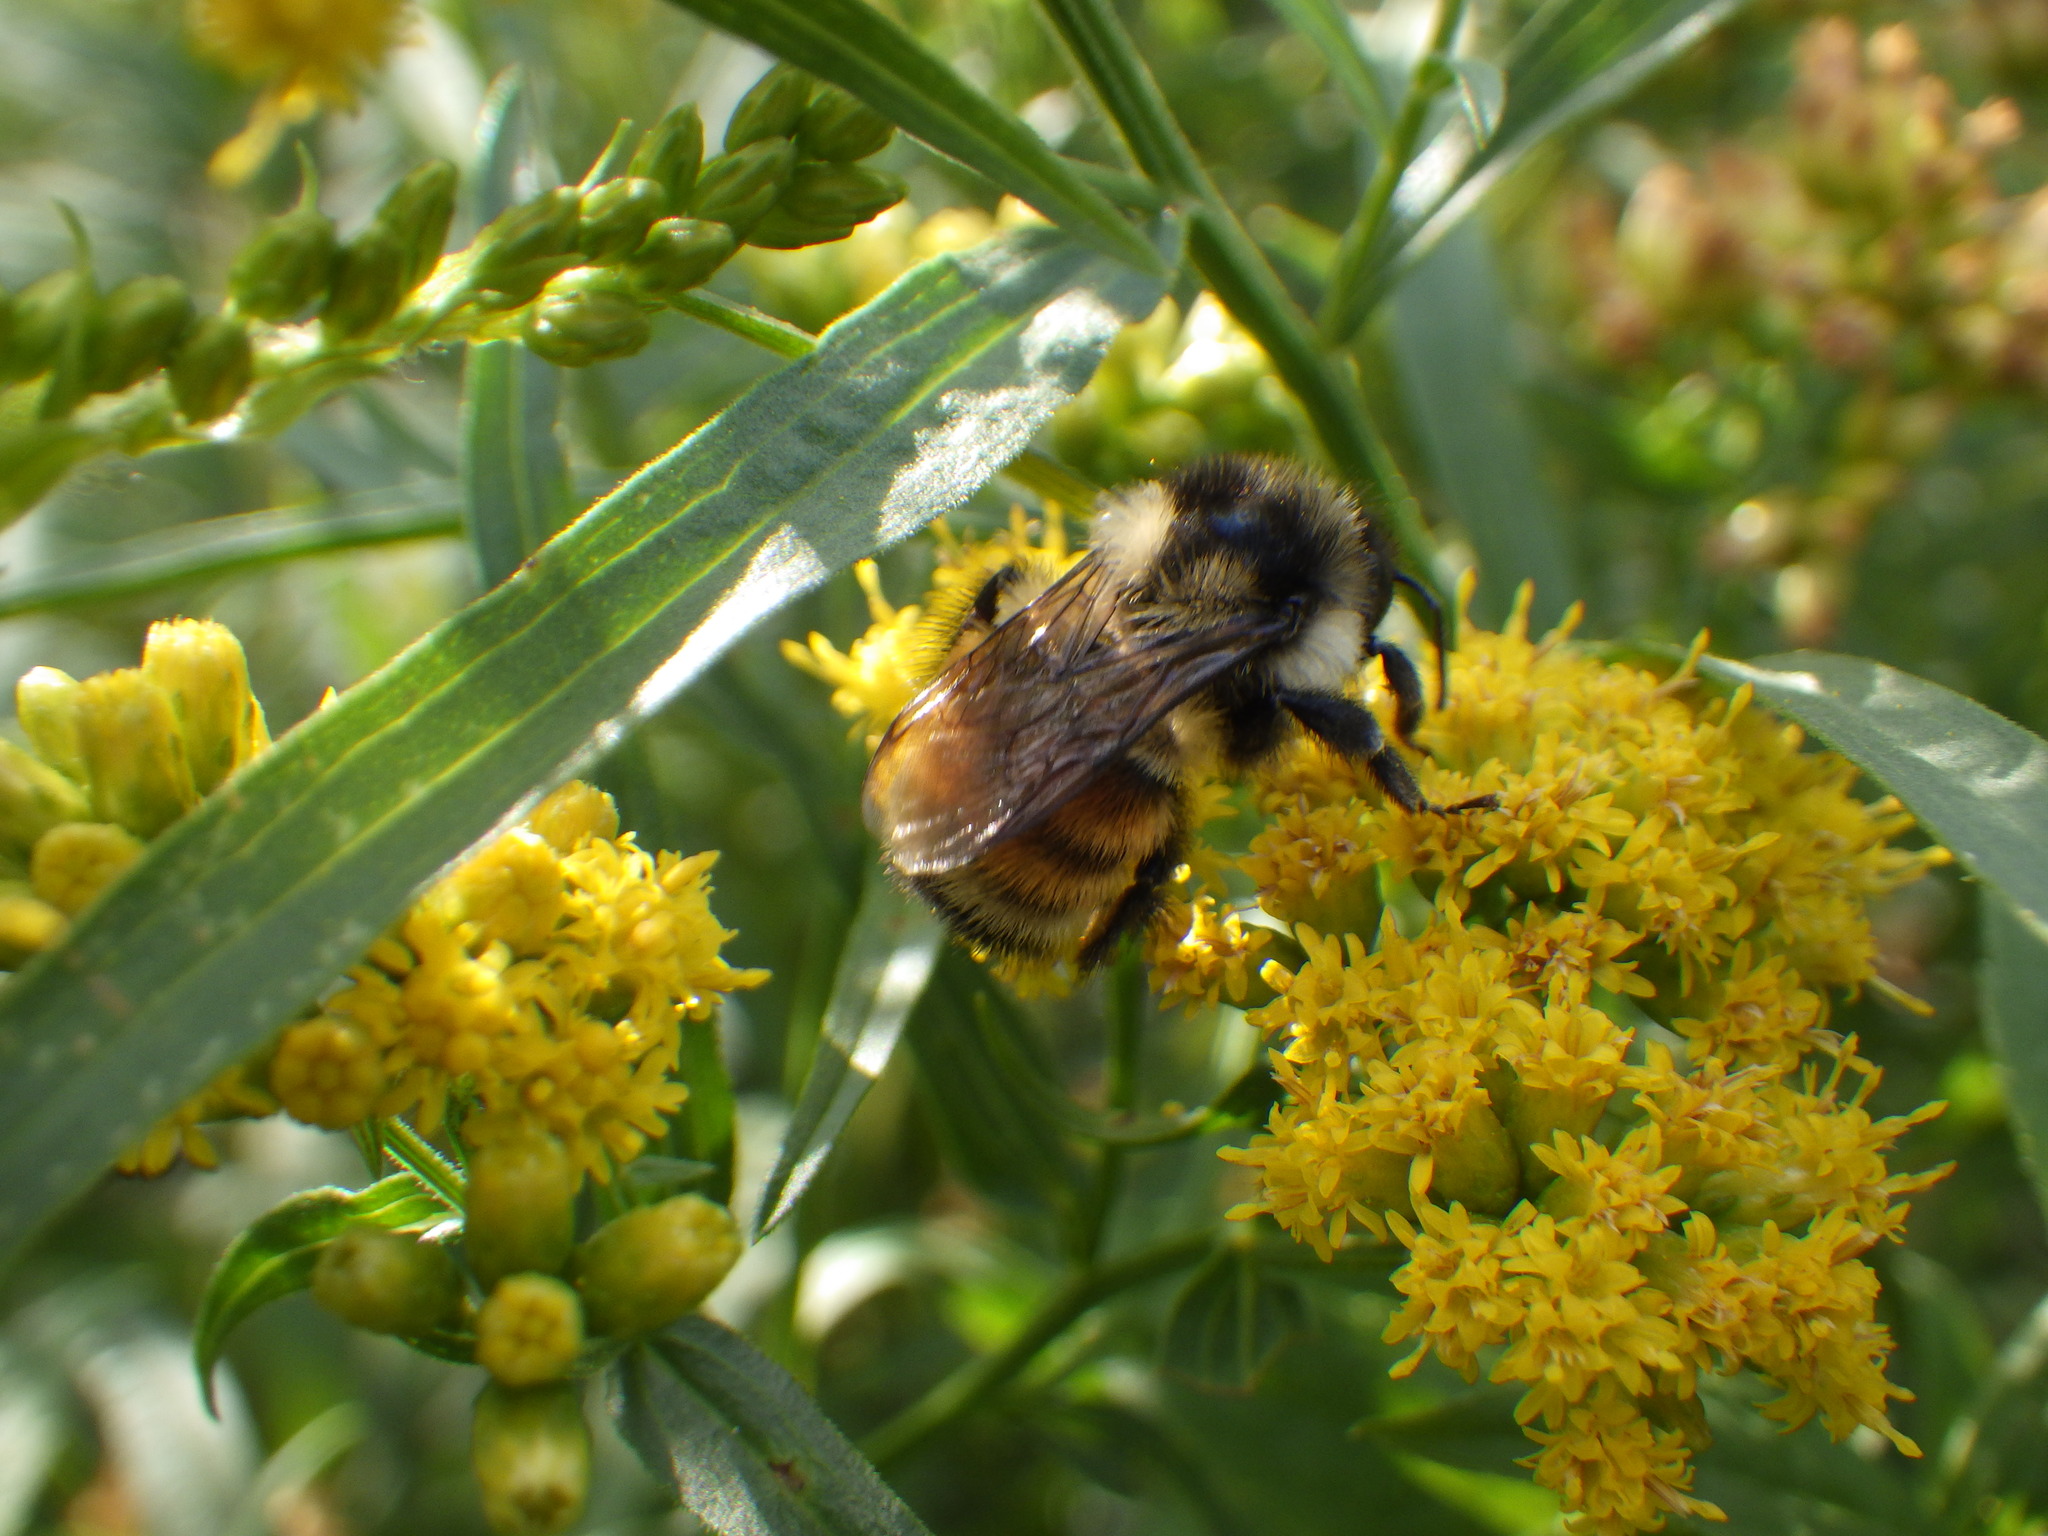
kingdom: Animalia
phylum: Arthropoda
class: Insecta
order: Hymenoptera
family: Apidae
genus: Bombus
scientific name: Bombus ternarius
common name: Tri-colored bumble bee
